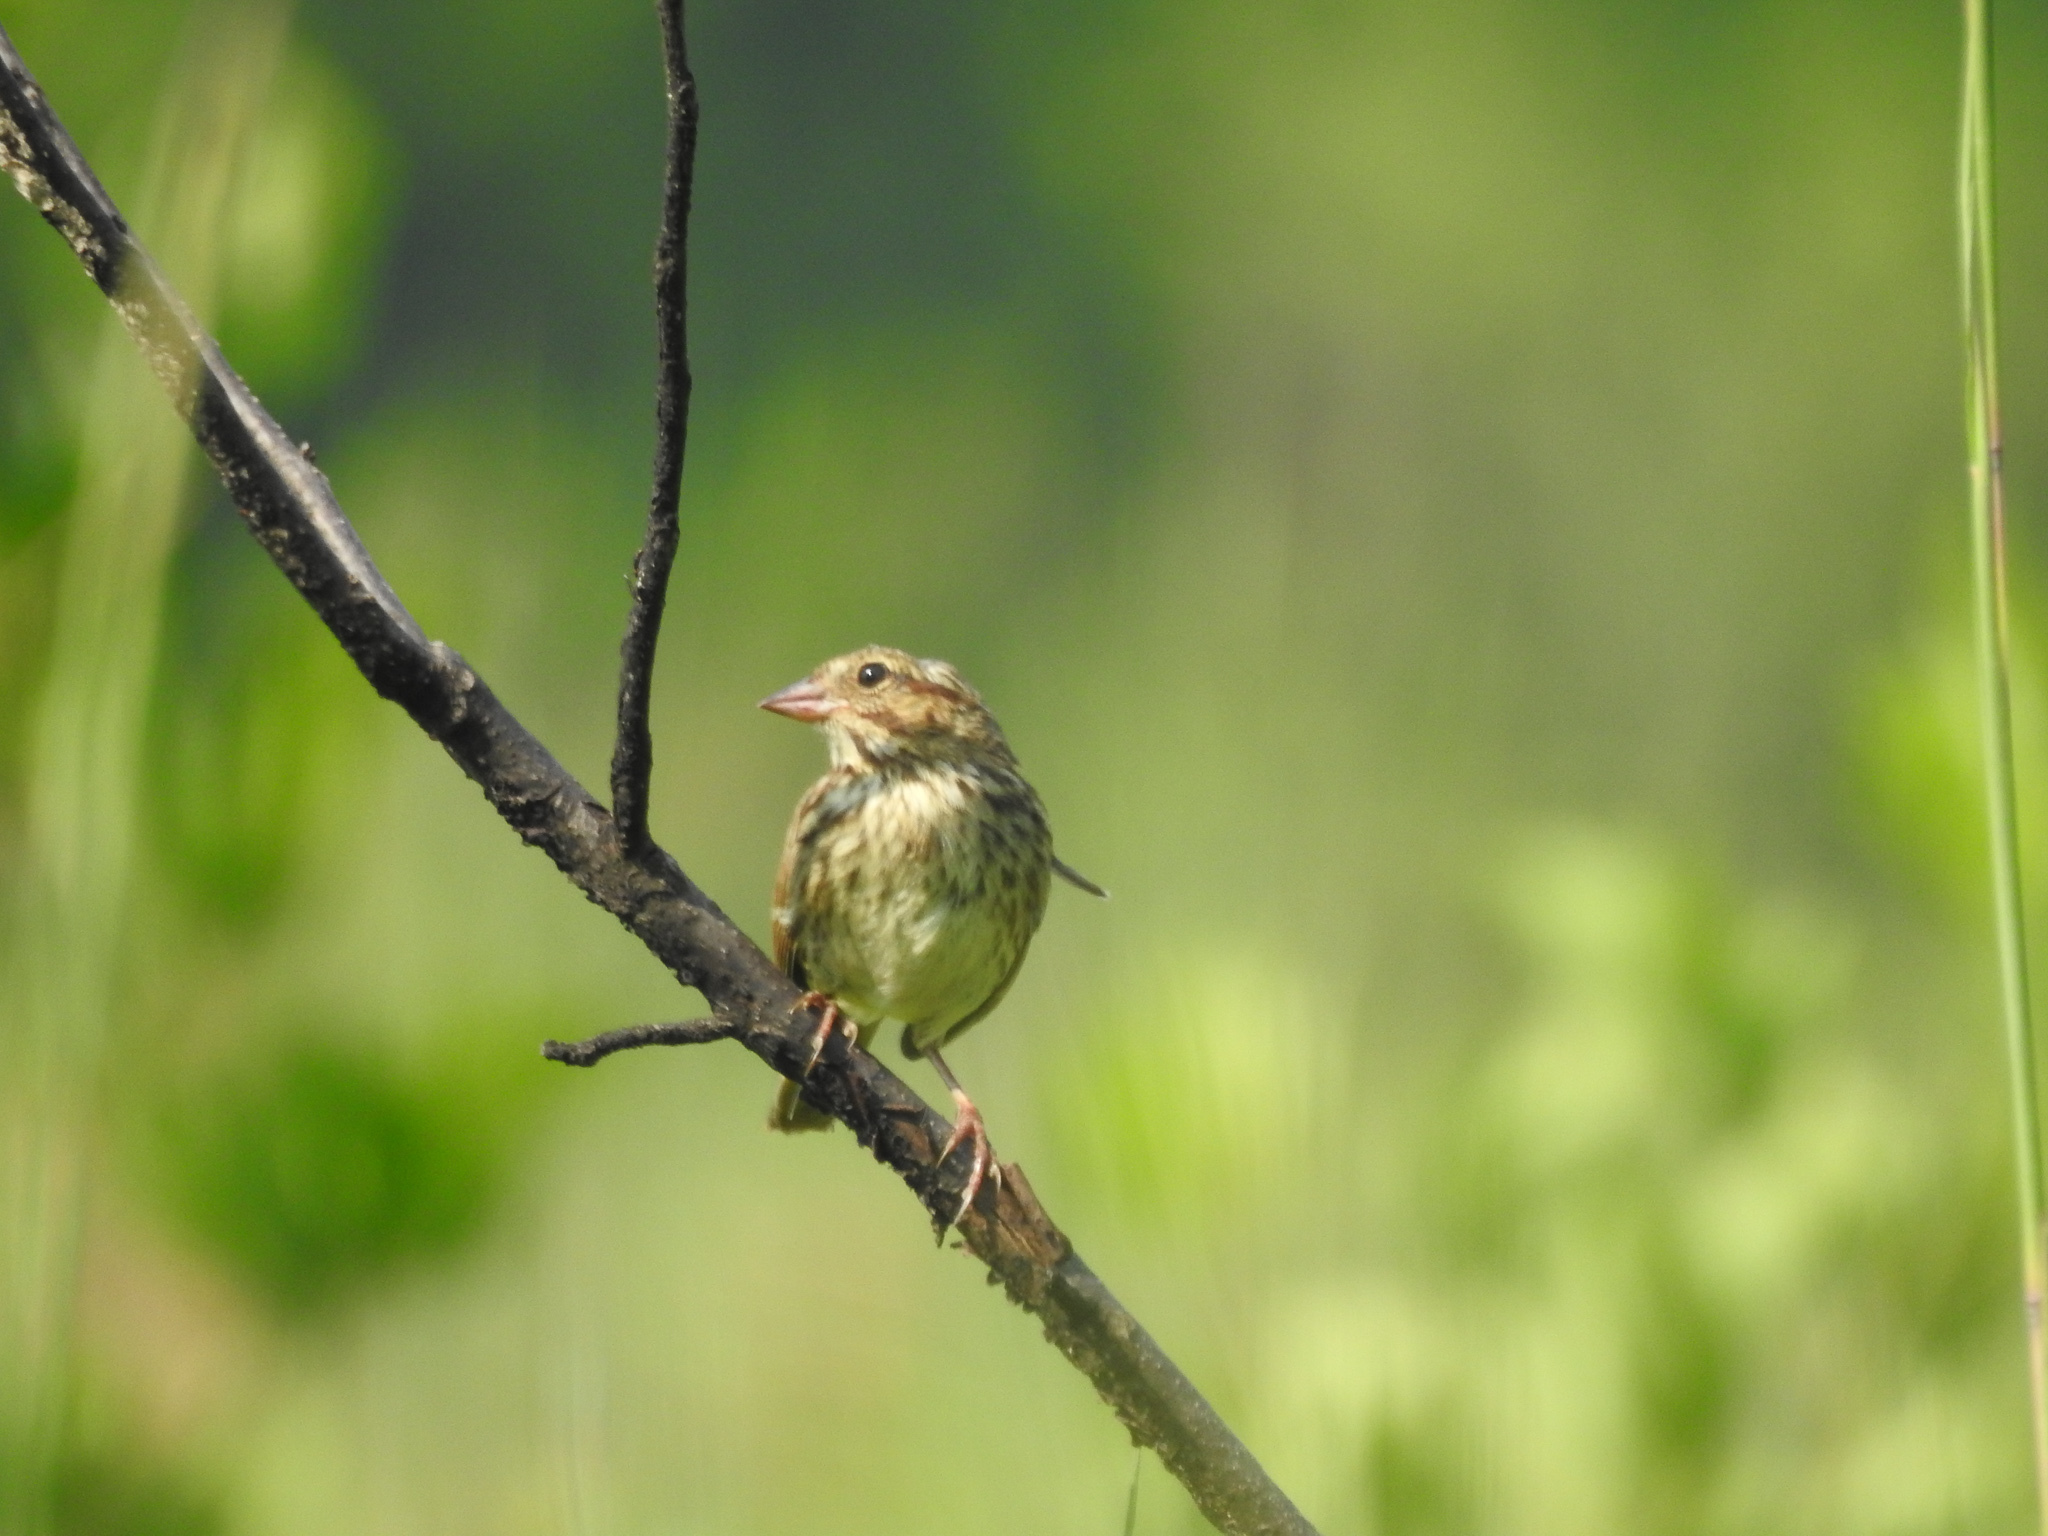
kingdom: Animalia
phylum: Chordata
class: Aves
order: Passeriformes
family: Passerellidae
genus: Melospiza
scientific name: Melospiza melodia
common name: Song sparrow
